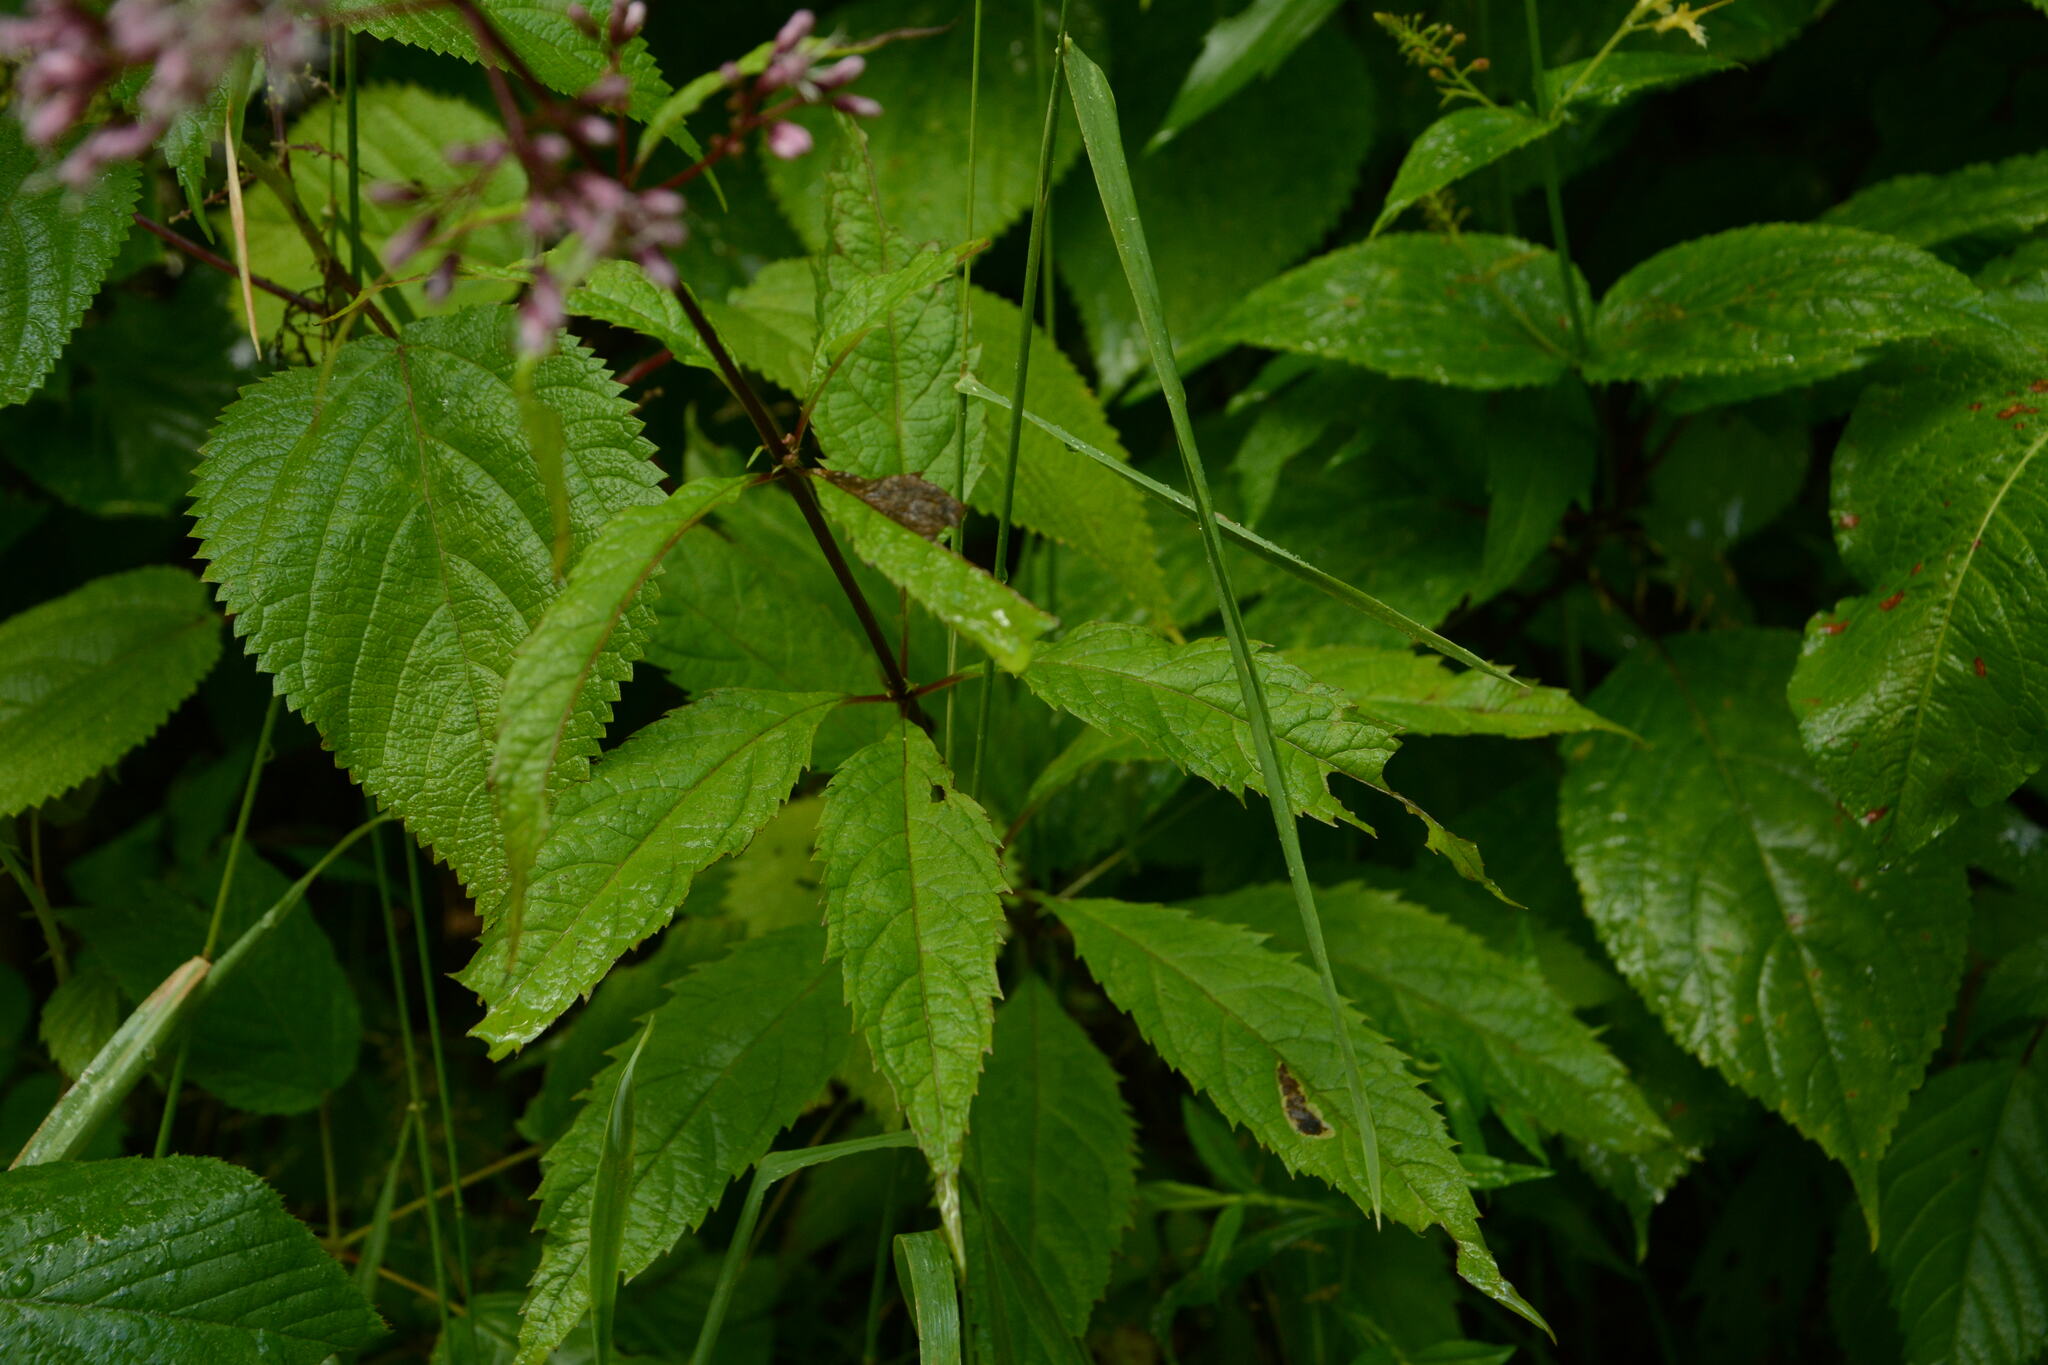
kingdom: Plantae
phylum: Tracheophyta
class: Magnoliopsida
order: Asterales
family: Asteraceae
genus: Eutrochium
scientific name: Eutrochium fistulosum
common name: Trumpetweed
